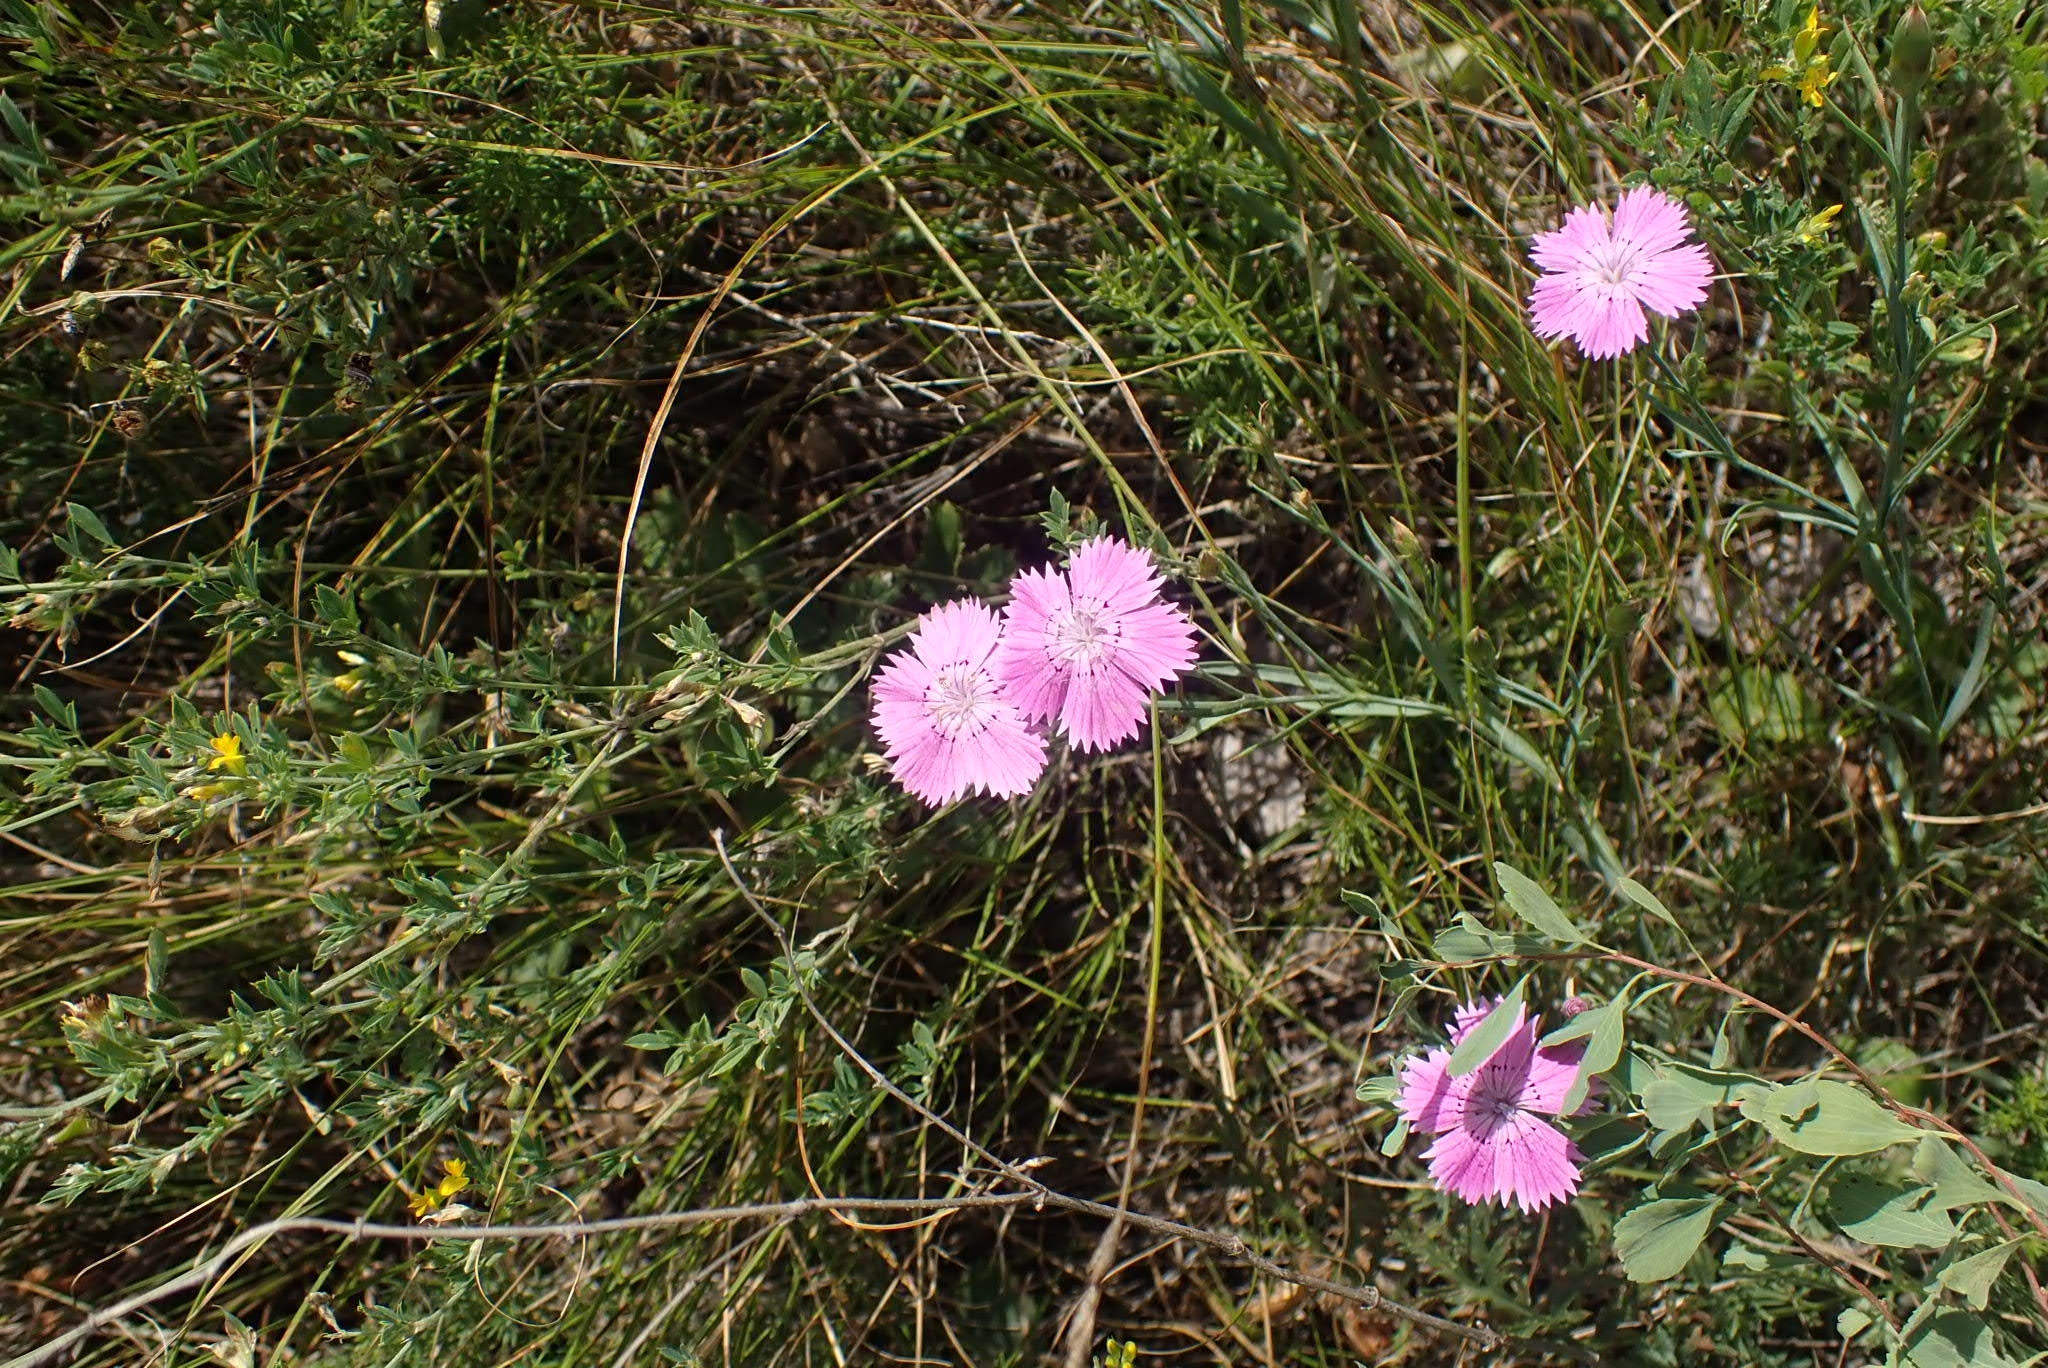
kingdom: Plantae
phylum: Tracheophyta
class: Magnoliopsida
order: Caryophyllales
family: Caryophyllaceae
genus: Dianthus
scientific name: Dianthus chinensis
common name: Rainbow pink
